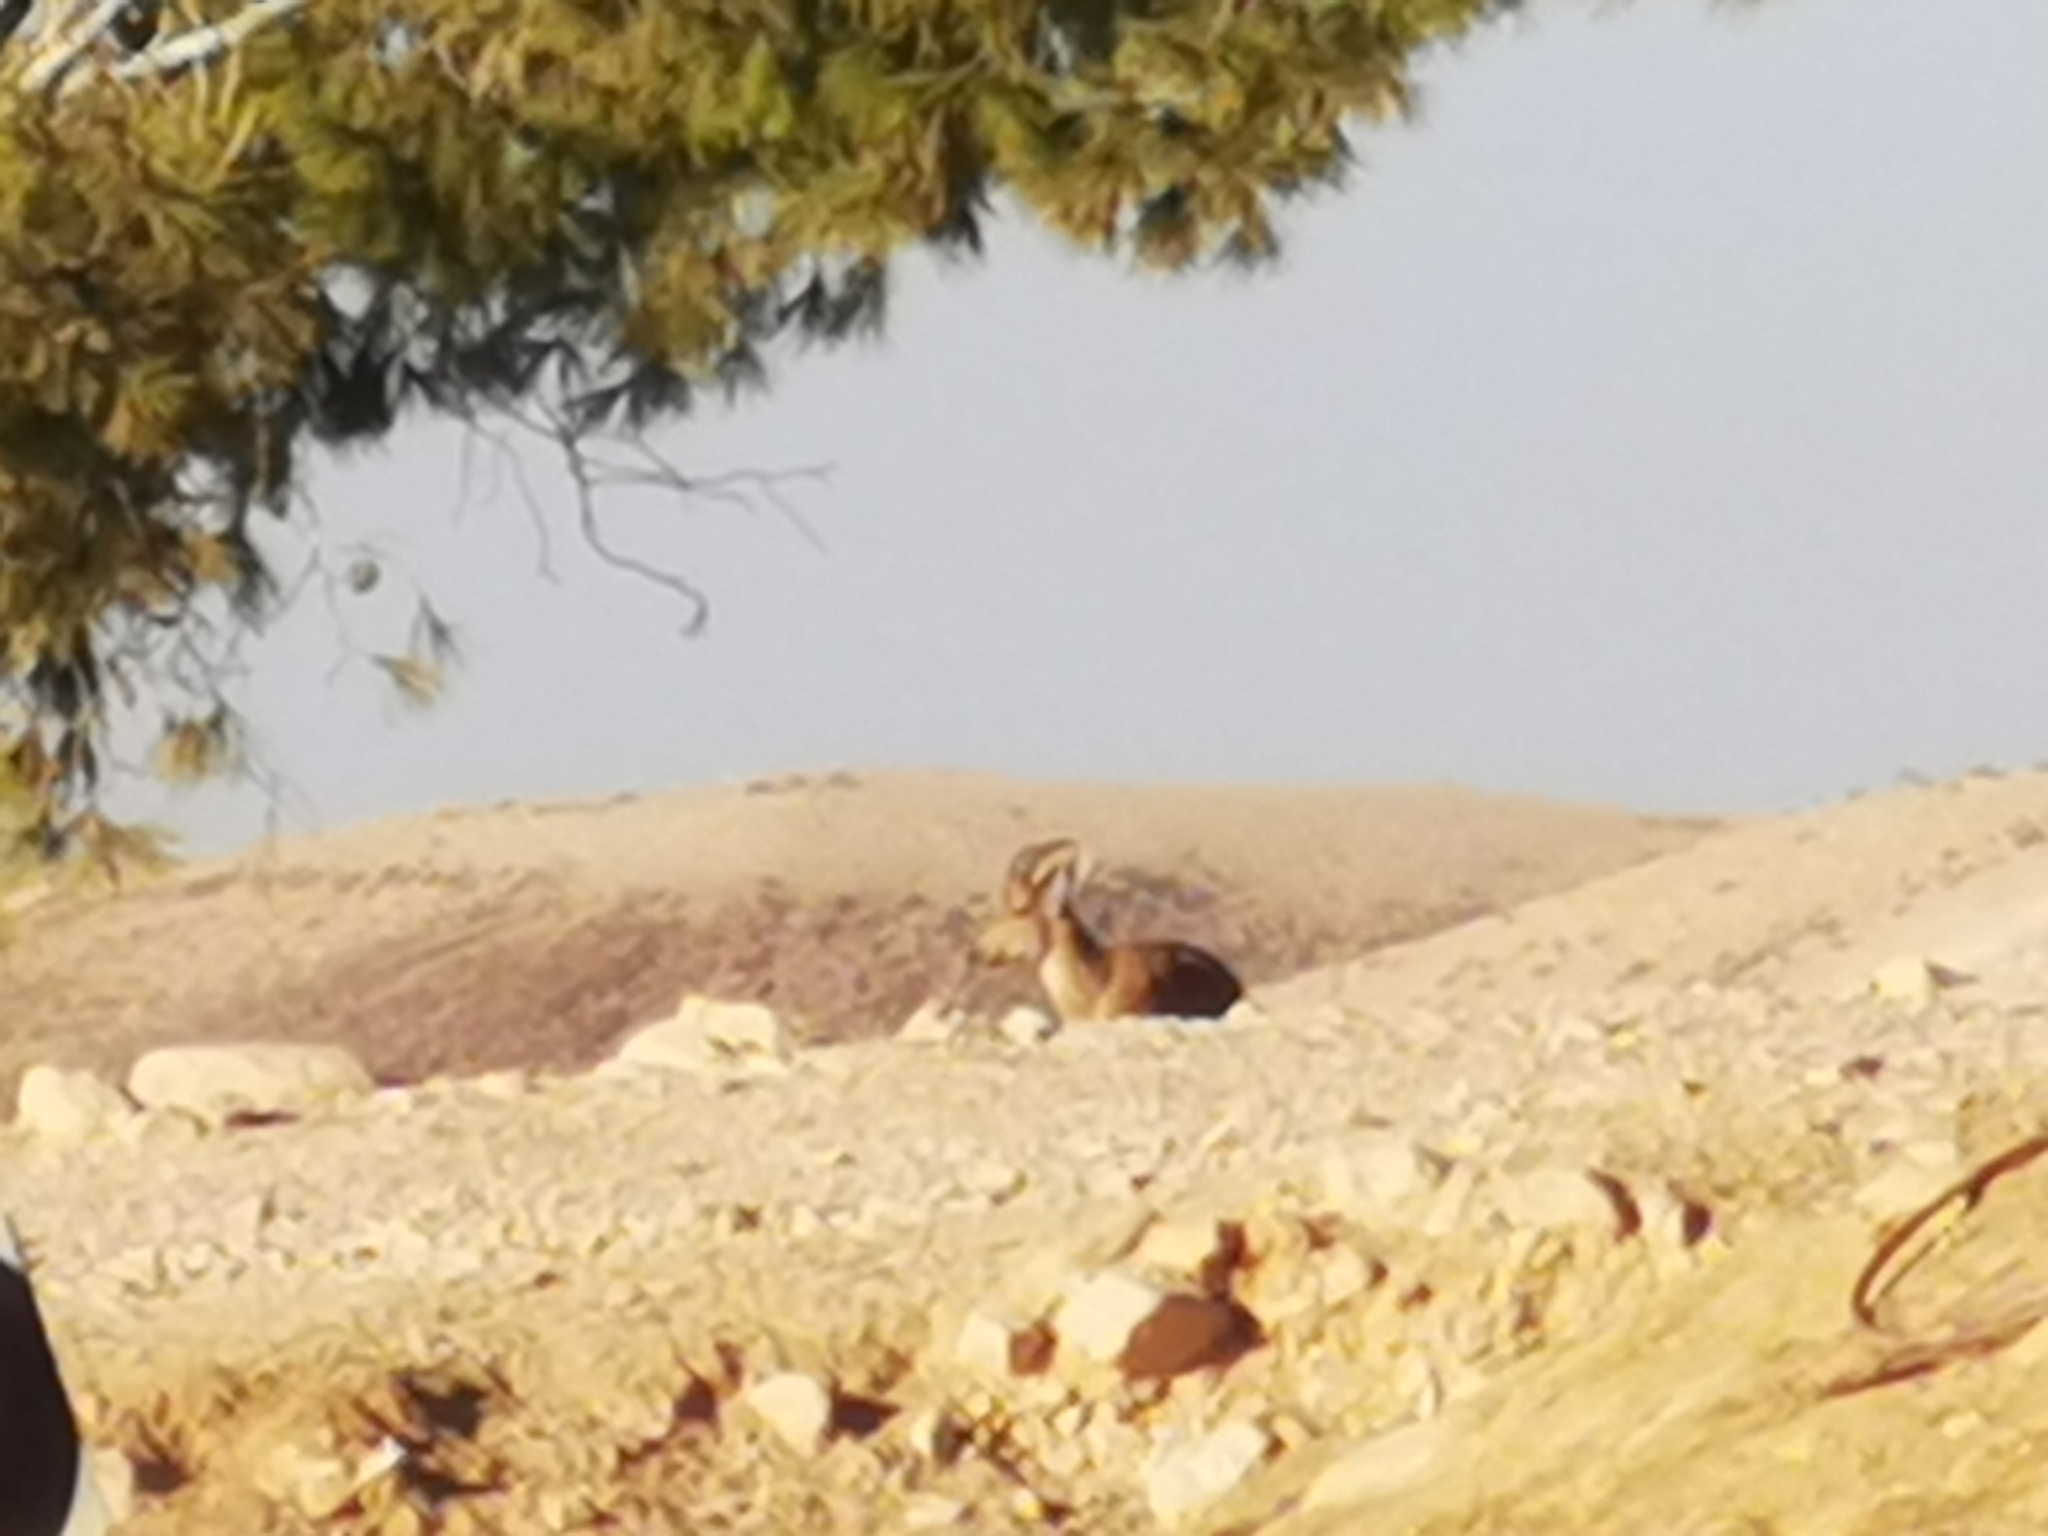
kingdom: Animalia
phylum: Chordata
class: Mammalia
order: Artiodactyla
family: Bovidae
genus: Capra
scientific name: Capra nubiana
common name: Nubian ibex
